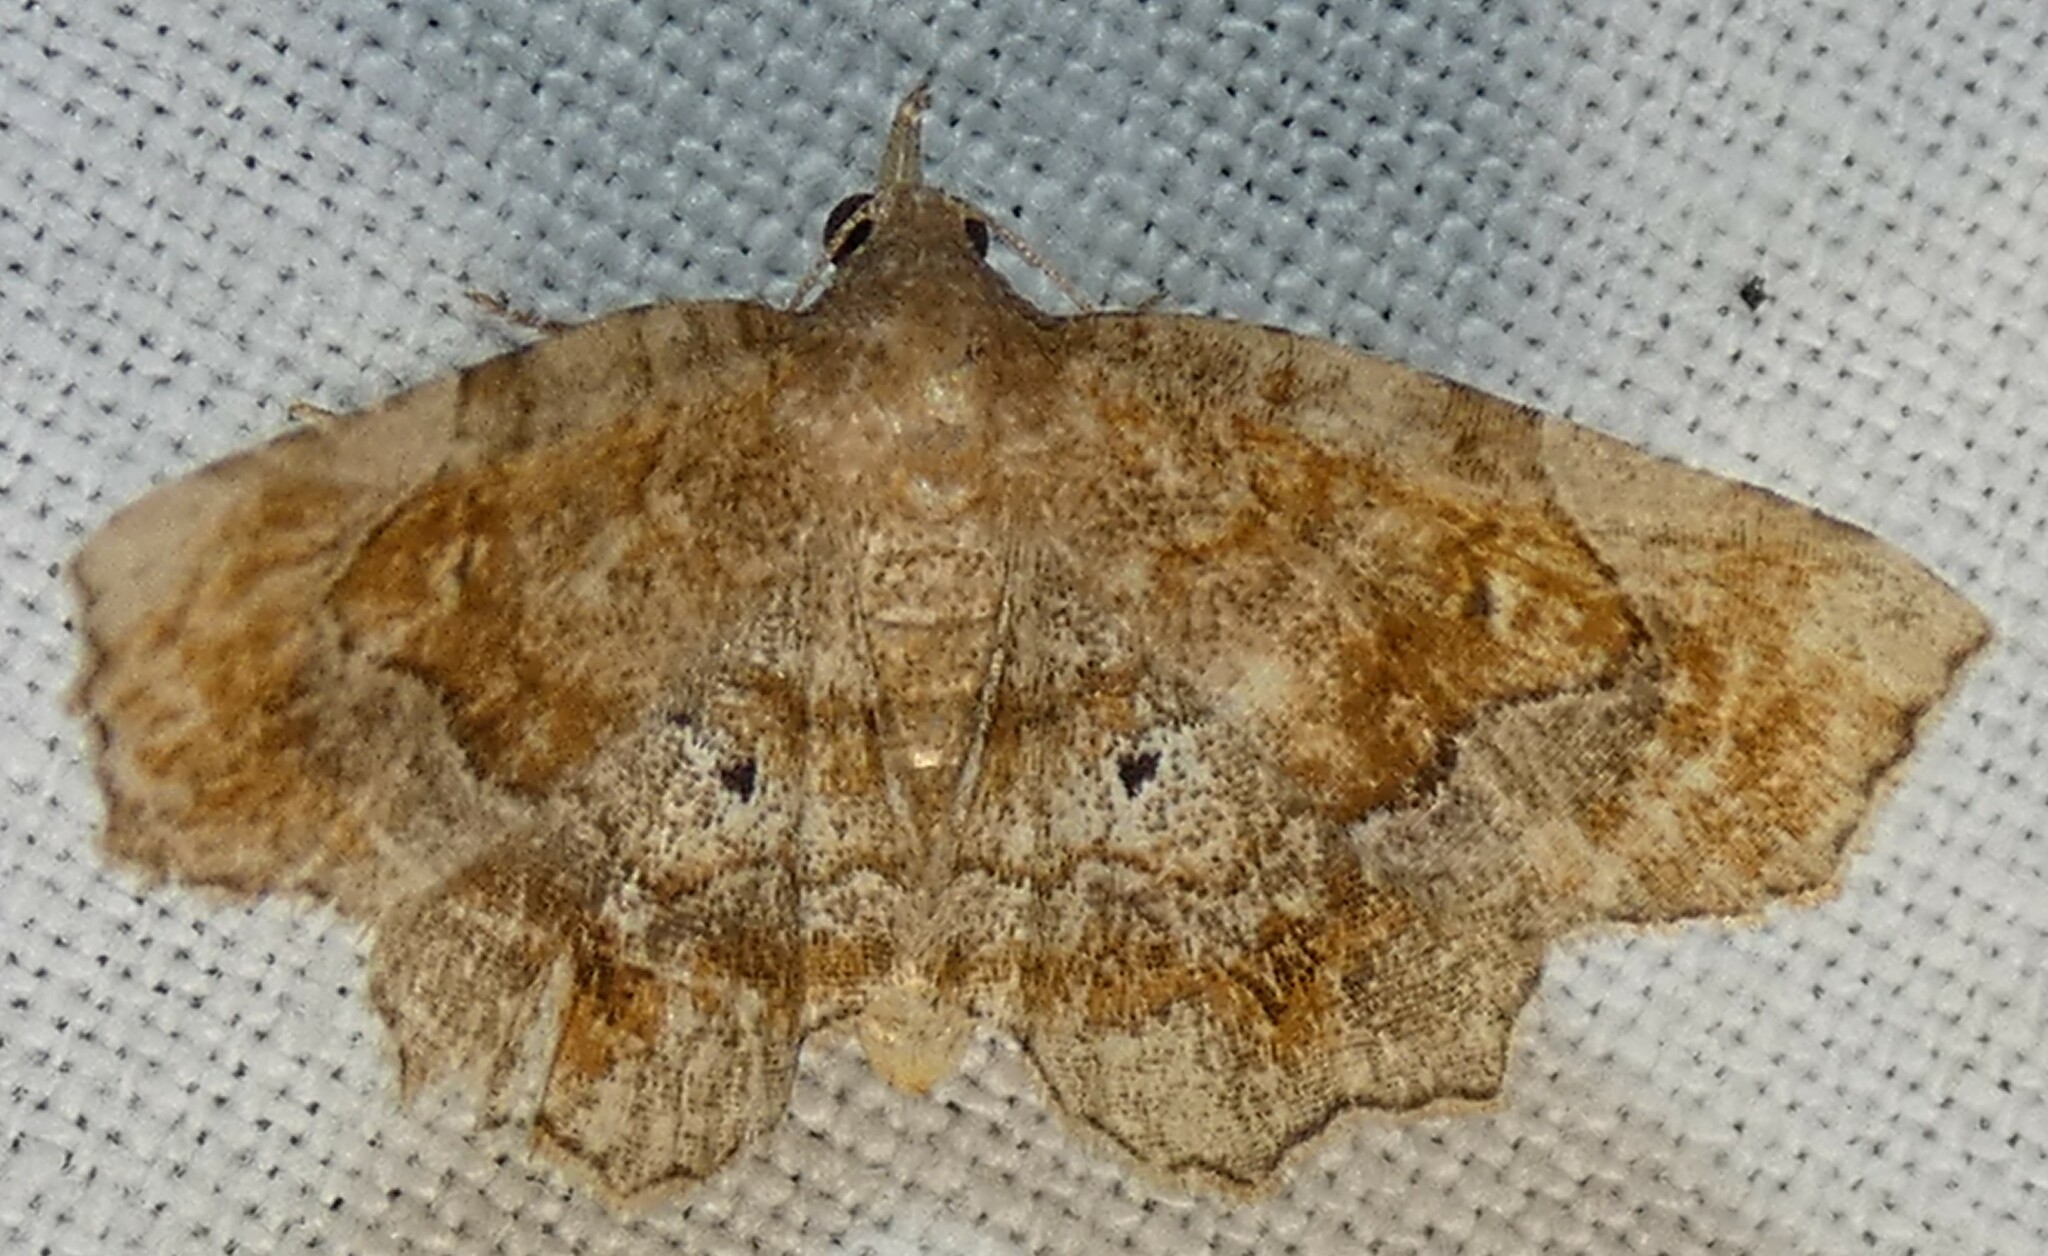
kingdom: Animalia
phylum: Arthropoda
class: Insecta
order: Lepidoptera
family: Erebidae
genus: Pangrapta
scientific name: Pangrapta decoralis
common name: Decorated owlet
